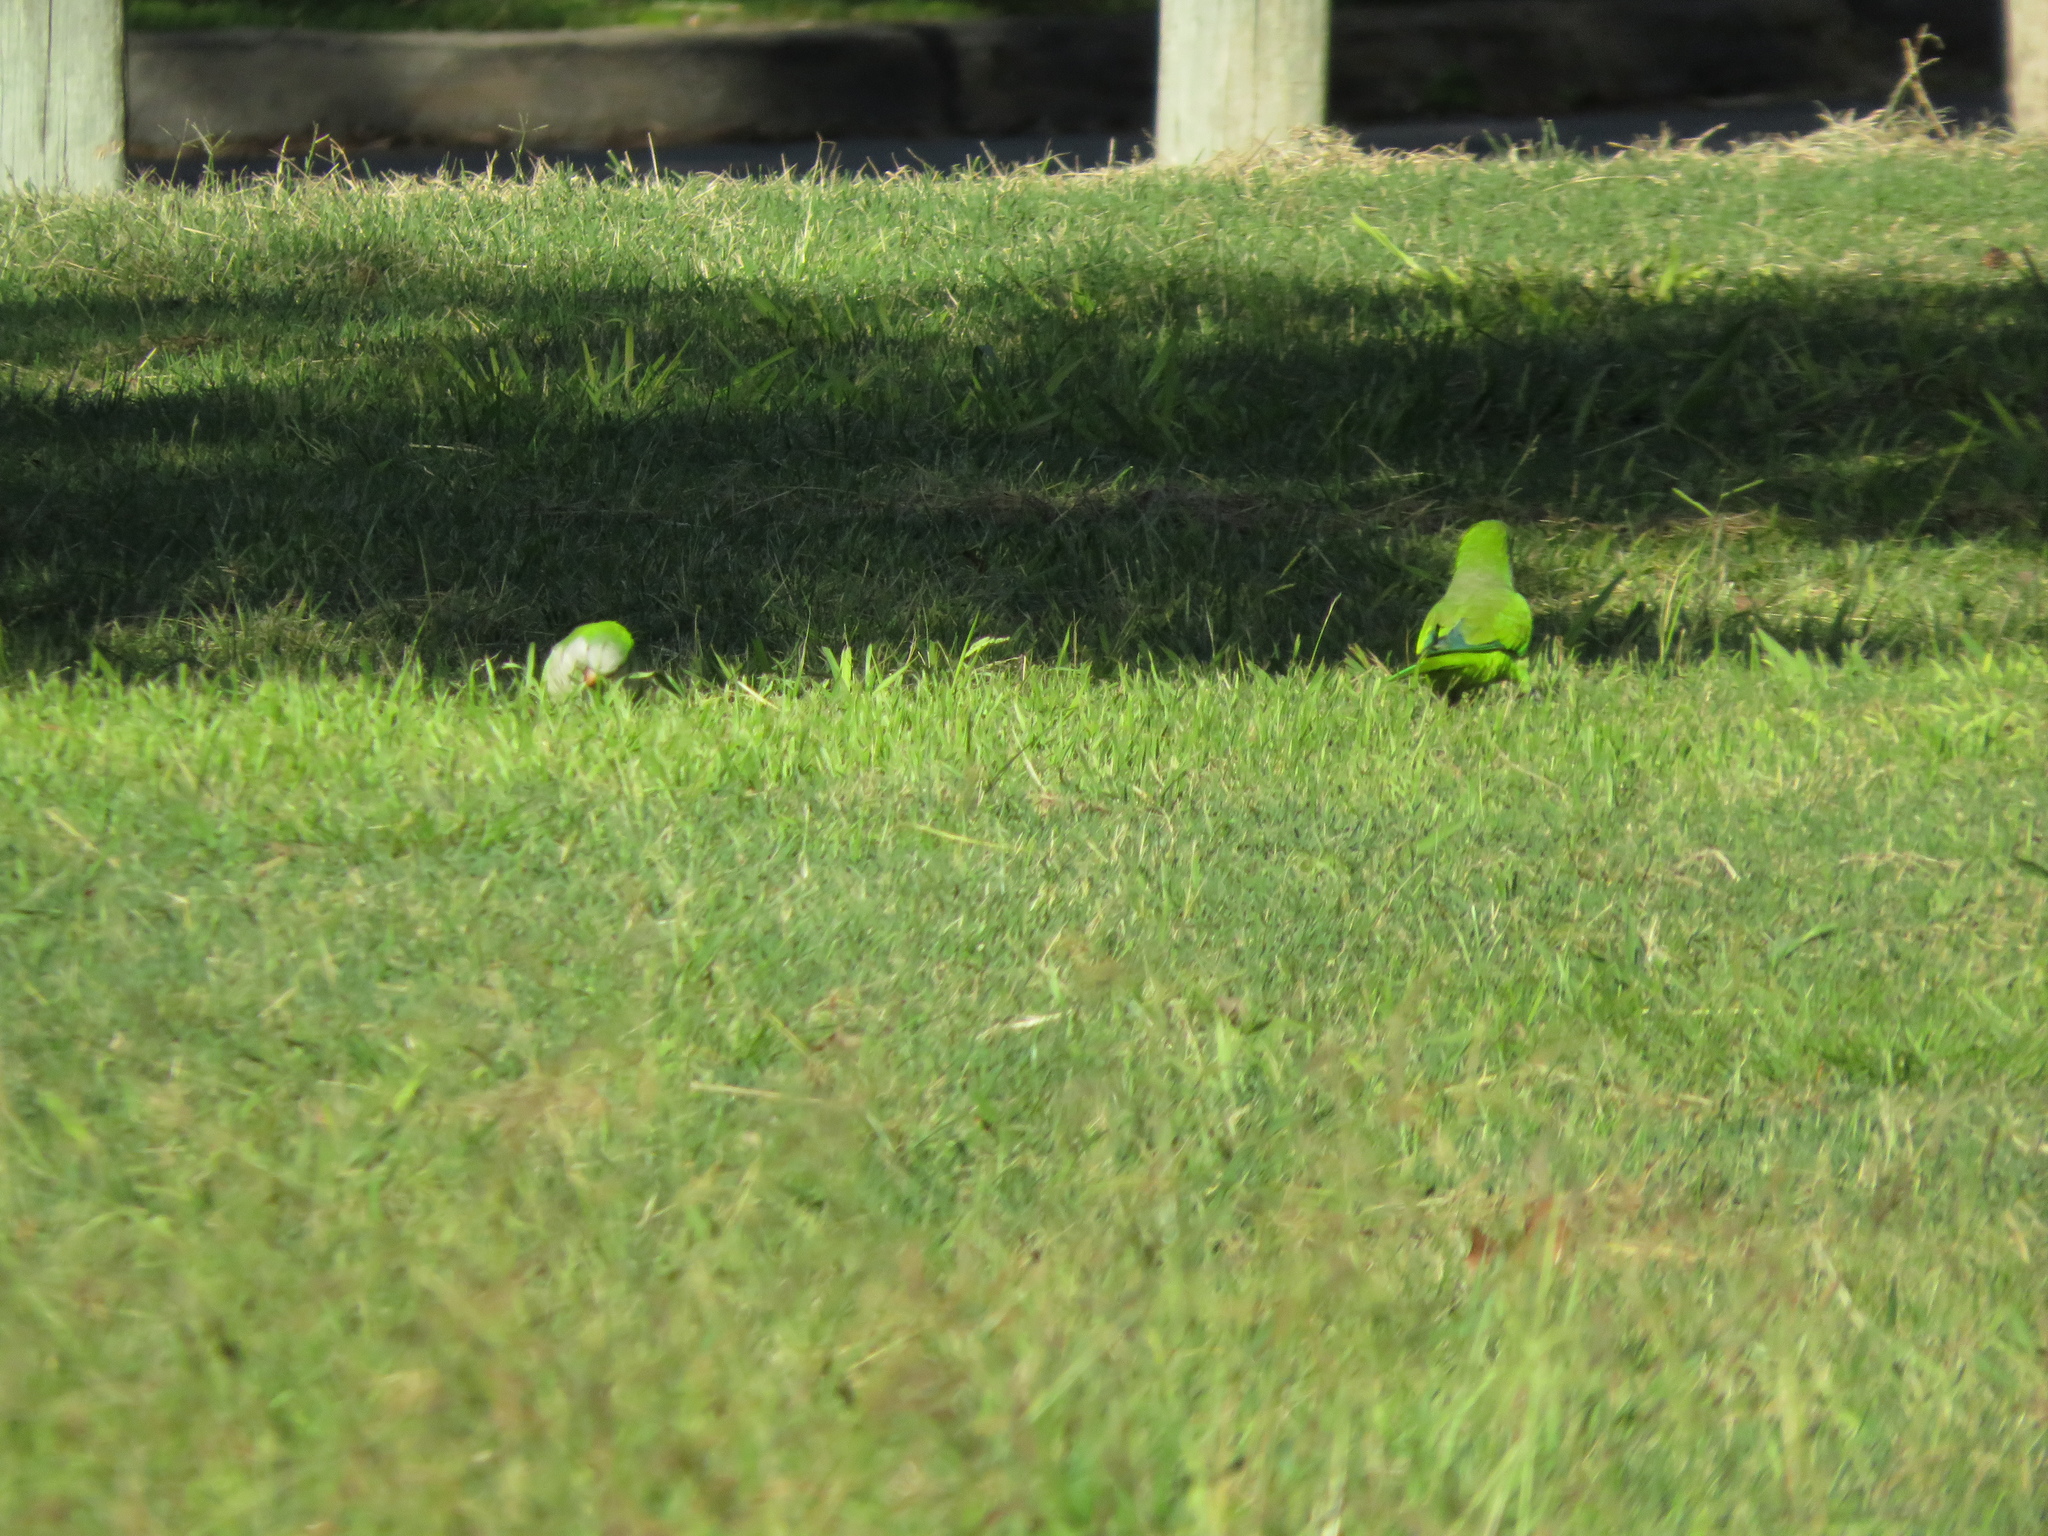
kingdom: Animalia
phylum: Chordata
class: Aves
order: Psittaciformes
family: Psittacidae
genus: Myiopsitta
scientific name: Myiopsitta monachus
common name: Monk parakeet
